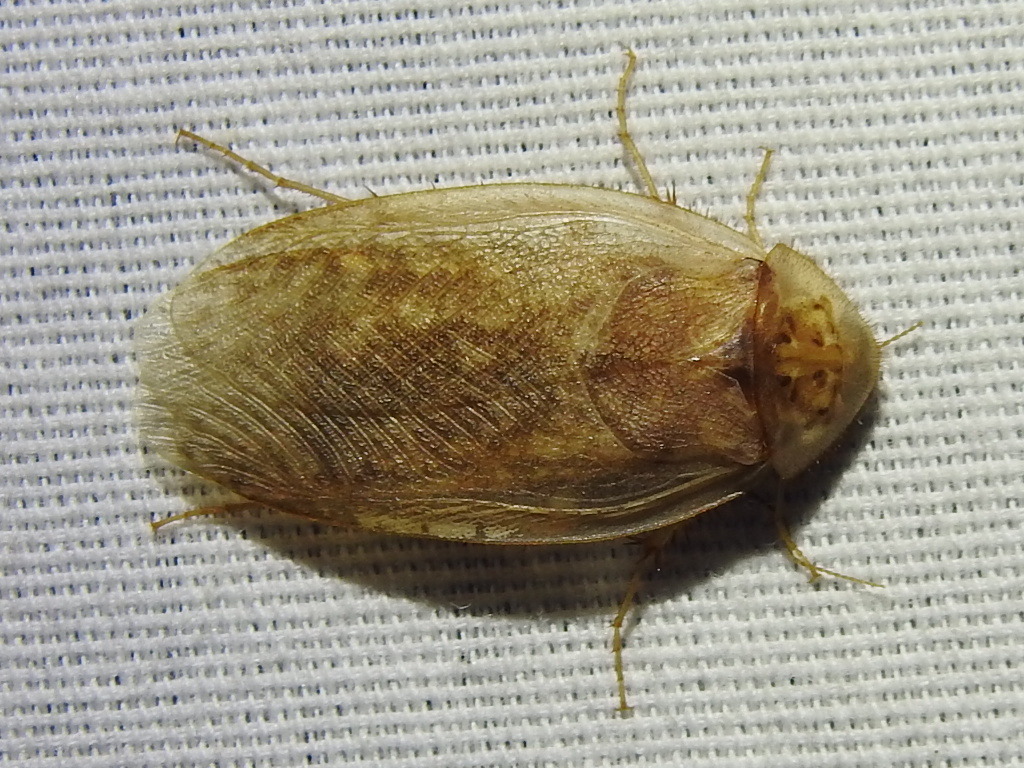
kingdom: Animalia
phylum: Arthropoda
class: Insecta
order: Blattodea
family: Corydiidae
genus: Arenivaga
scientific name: Arenivaga bolliana
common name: Boll's sand cockroach
